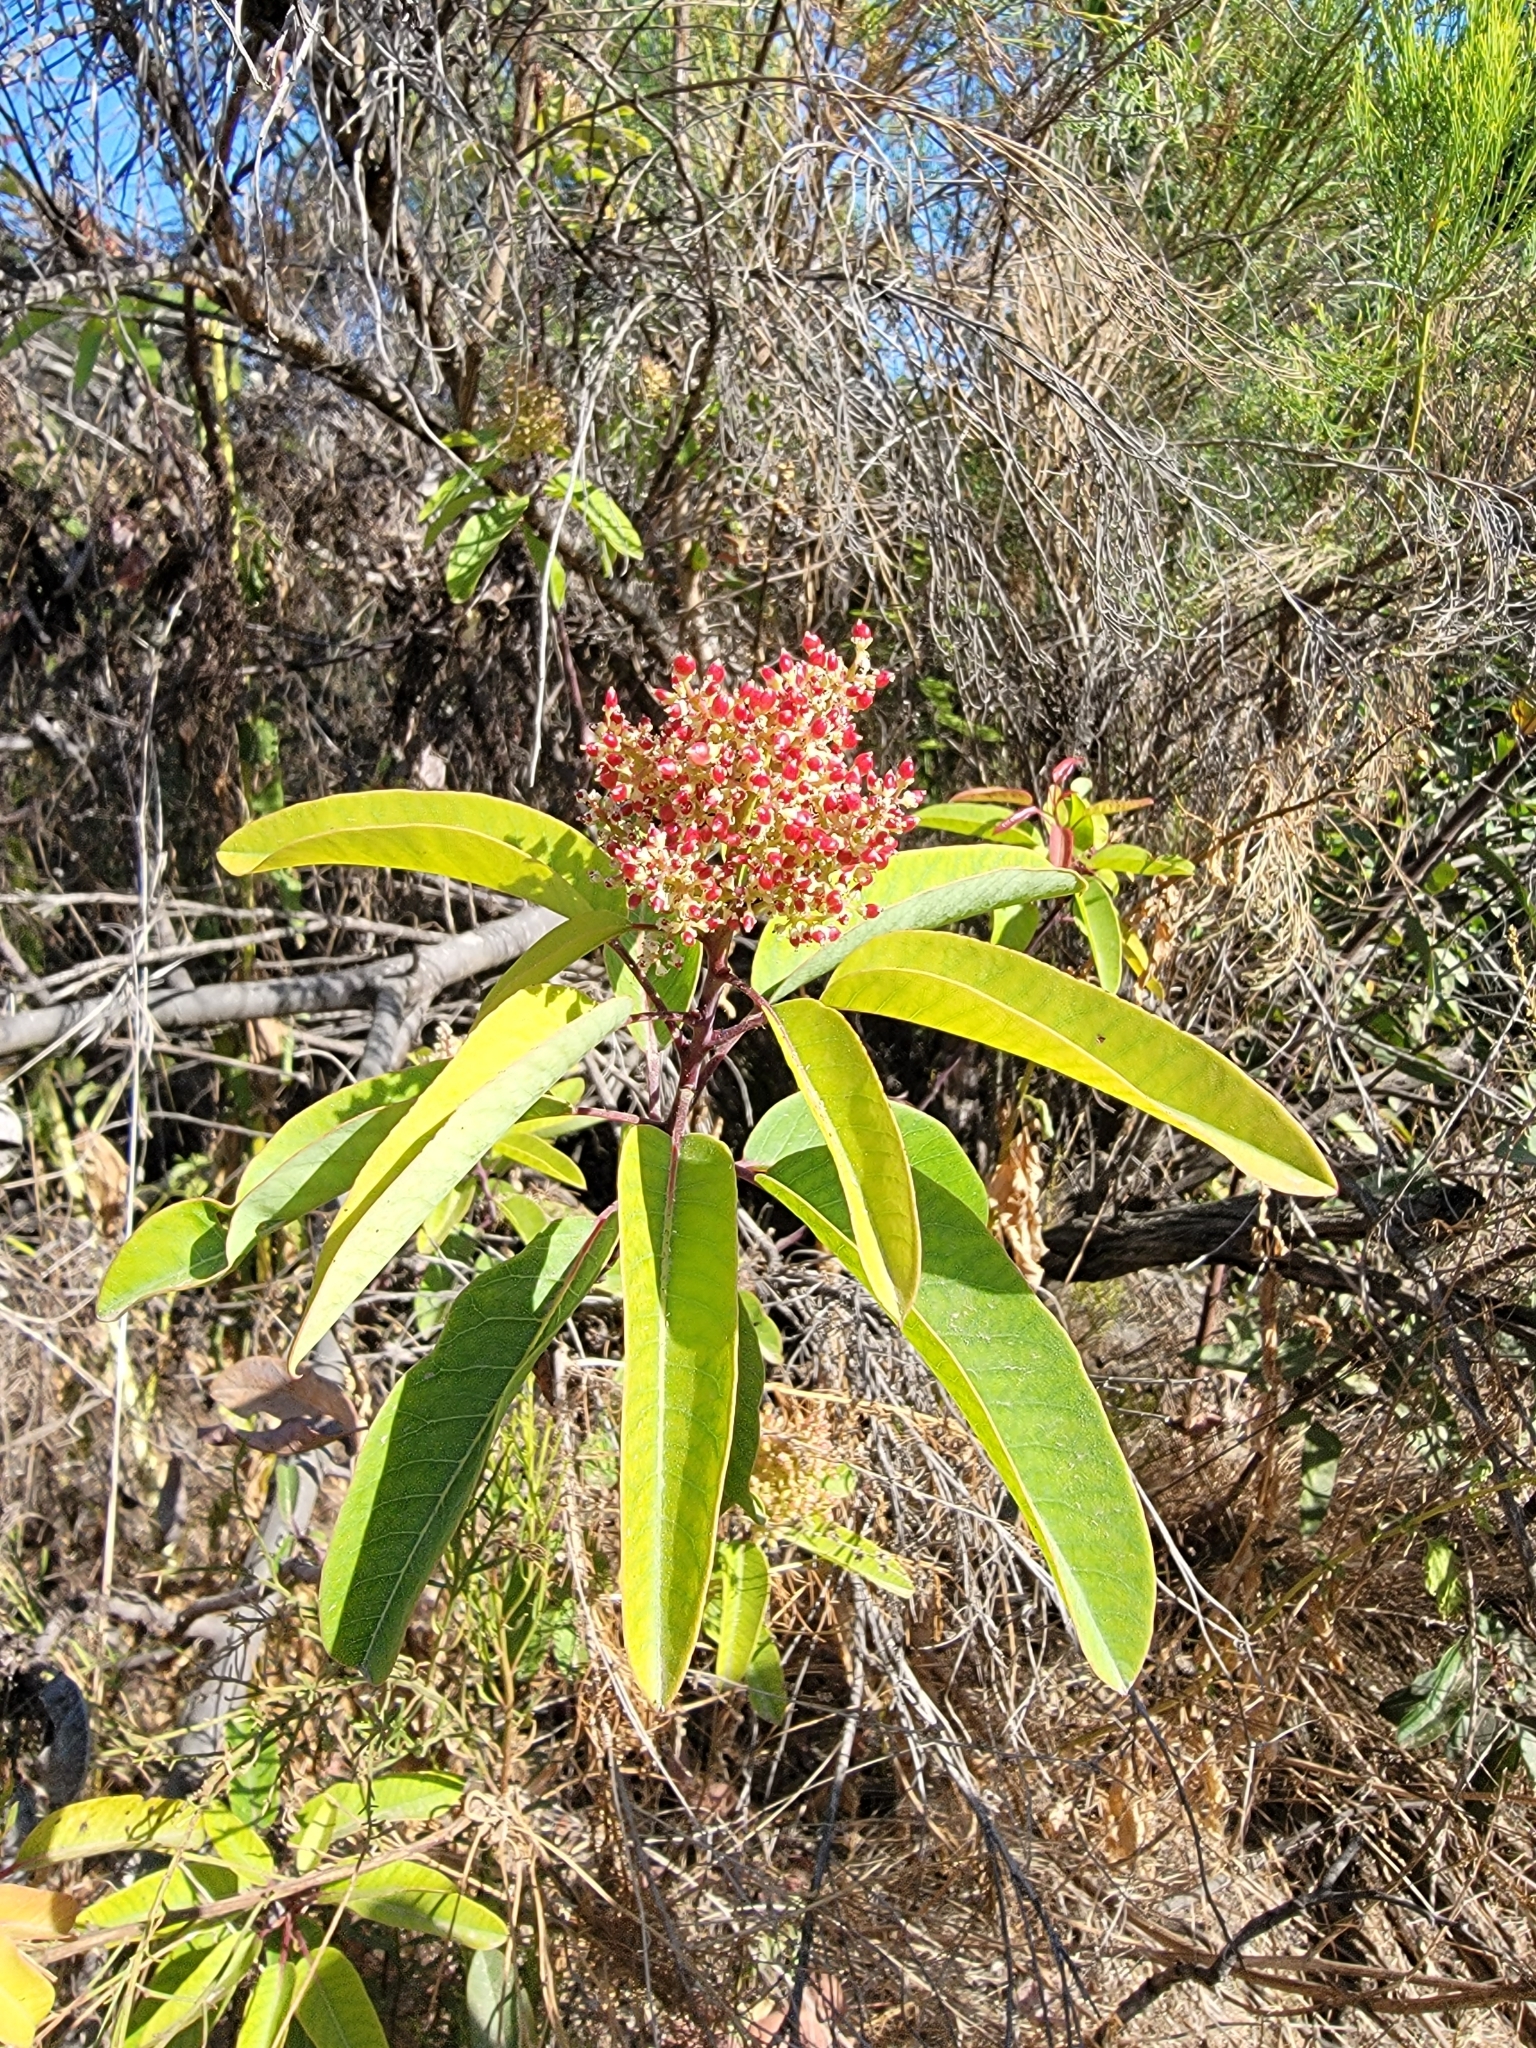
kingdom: Plantae
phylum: Tracheophyta
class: Magnoliopsida
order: Sapindales
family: Anacardiaceae
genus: Malosma
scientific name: Malosma laurina
